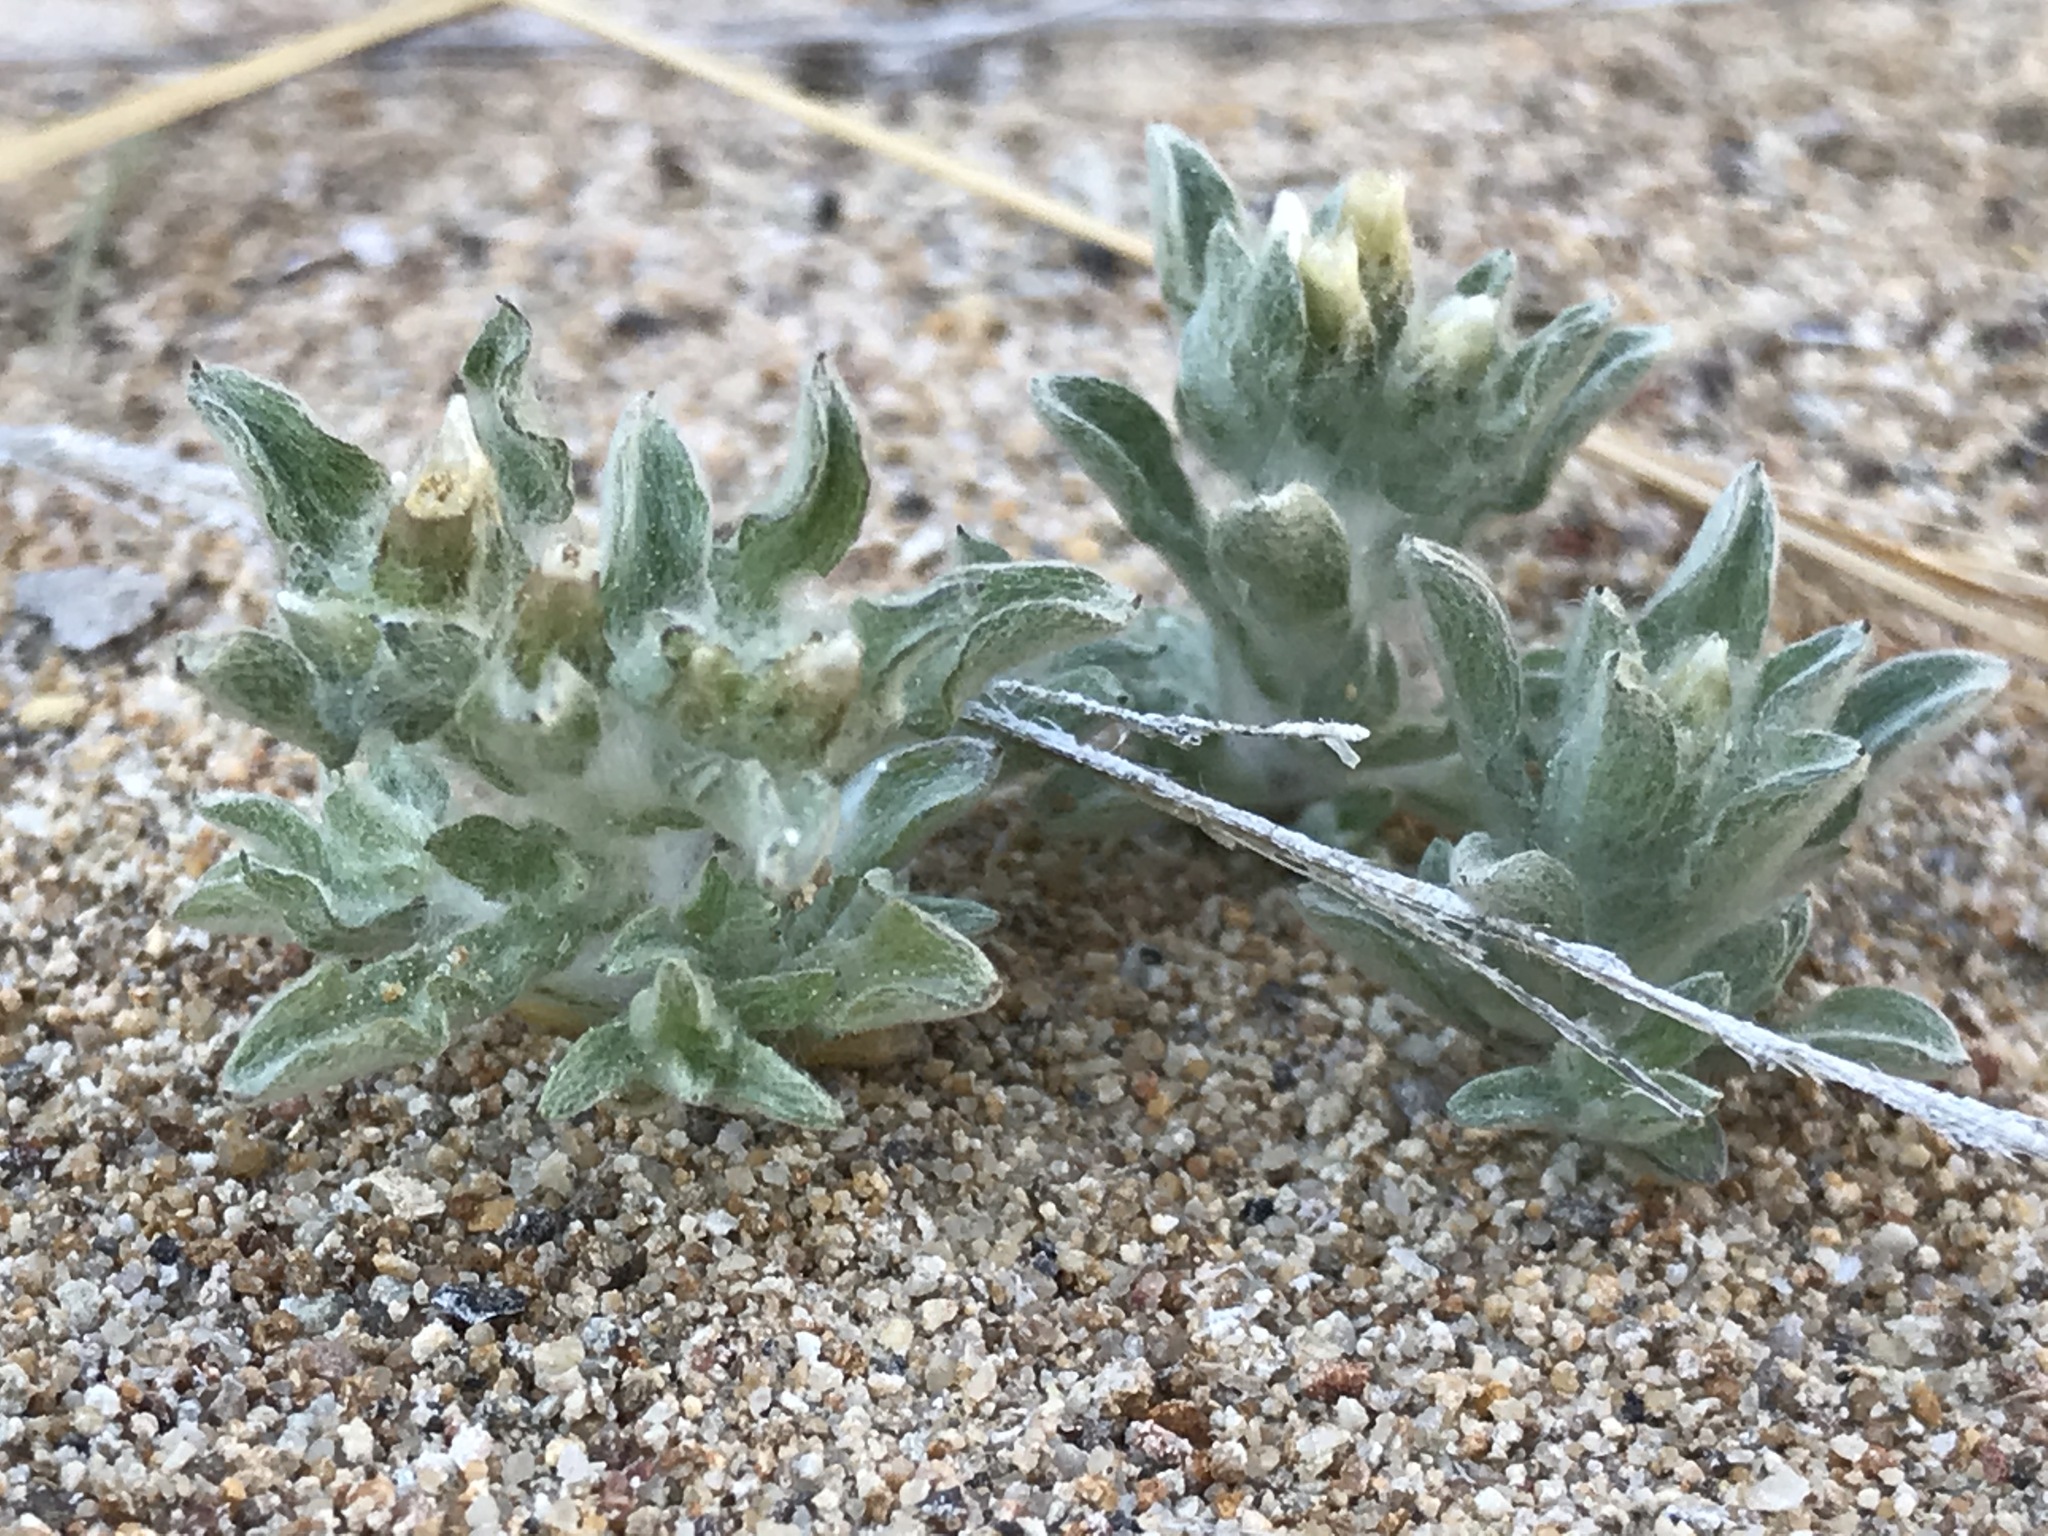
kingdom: Plantae
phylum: Tracheophyta
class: Magnoliopsida
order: Asterales
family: Asteraceae
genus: Gnaphalium
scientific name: Gnaphalium palustre
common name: Western marsh cudweed
